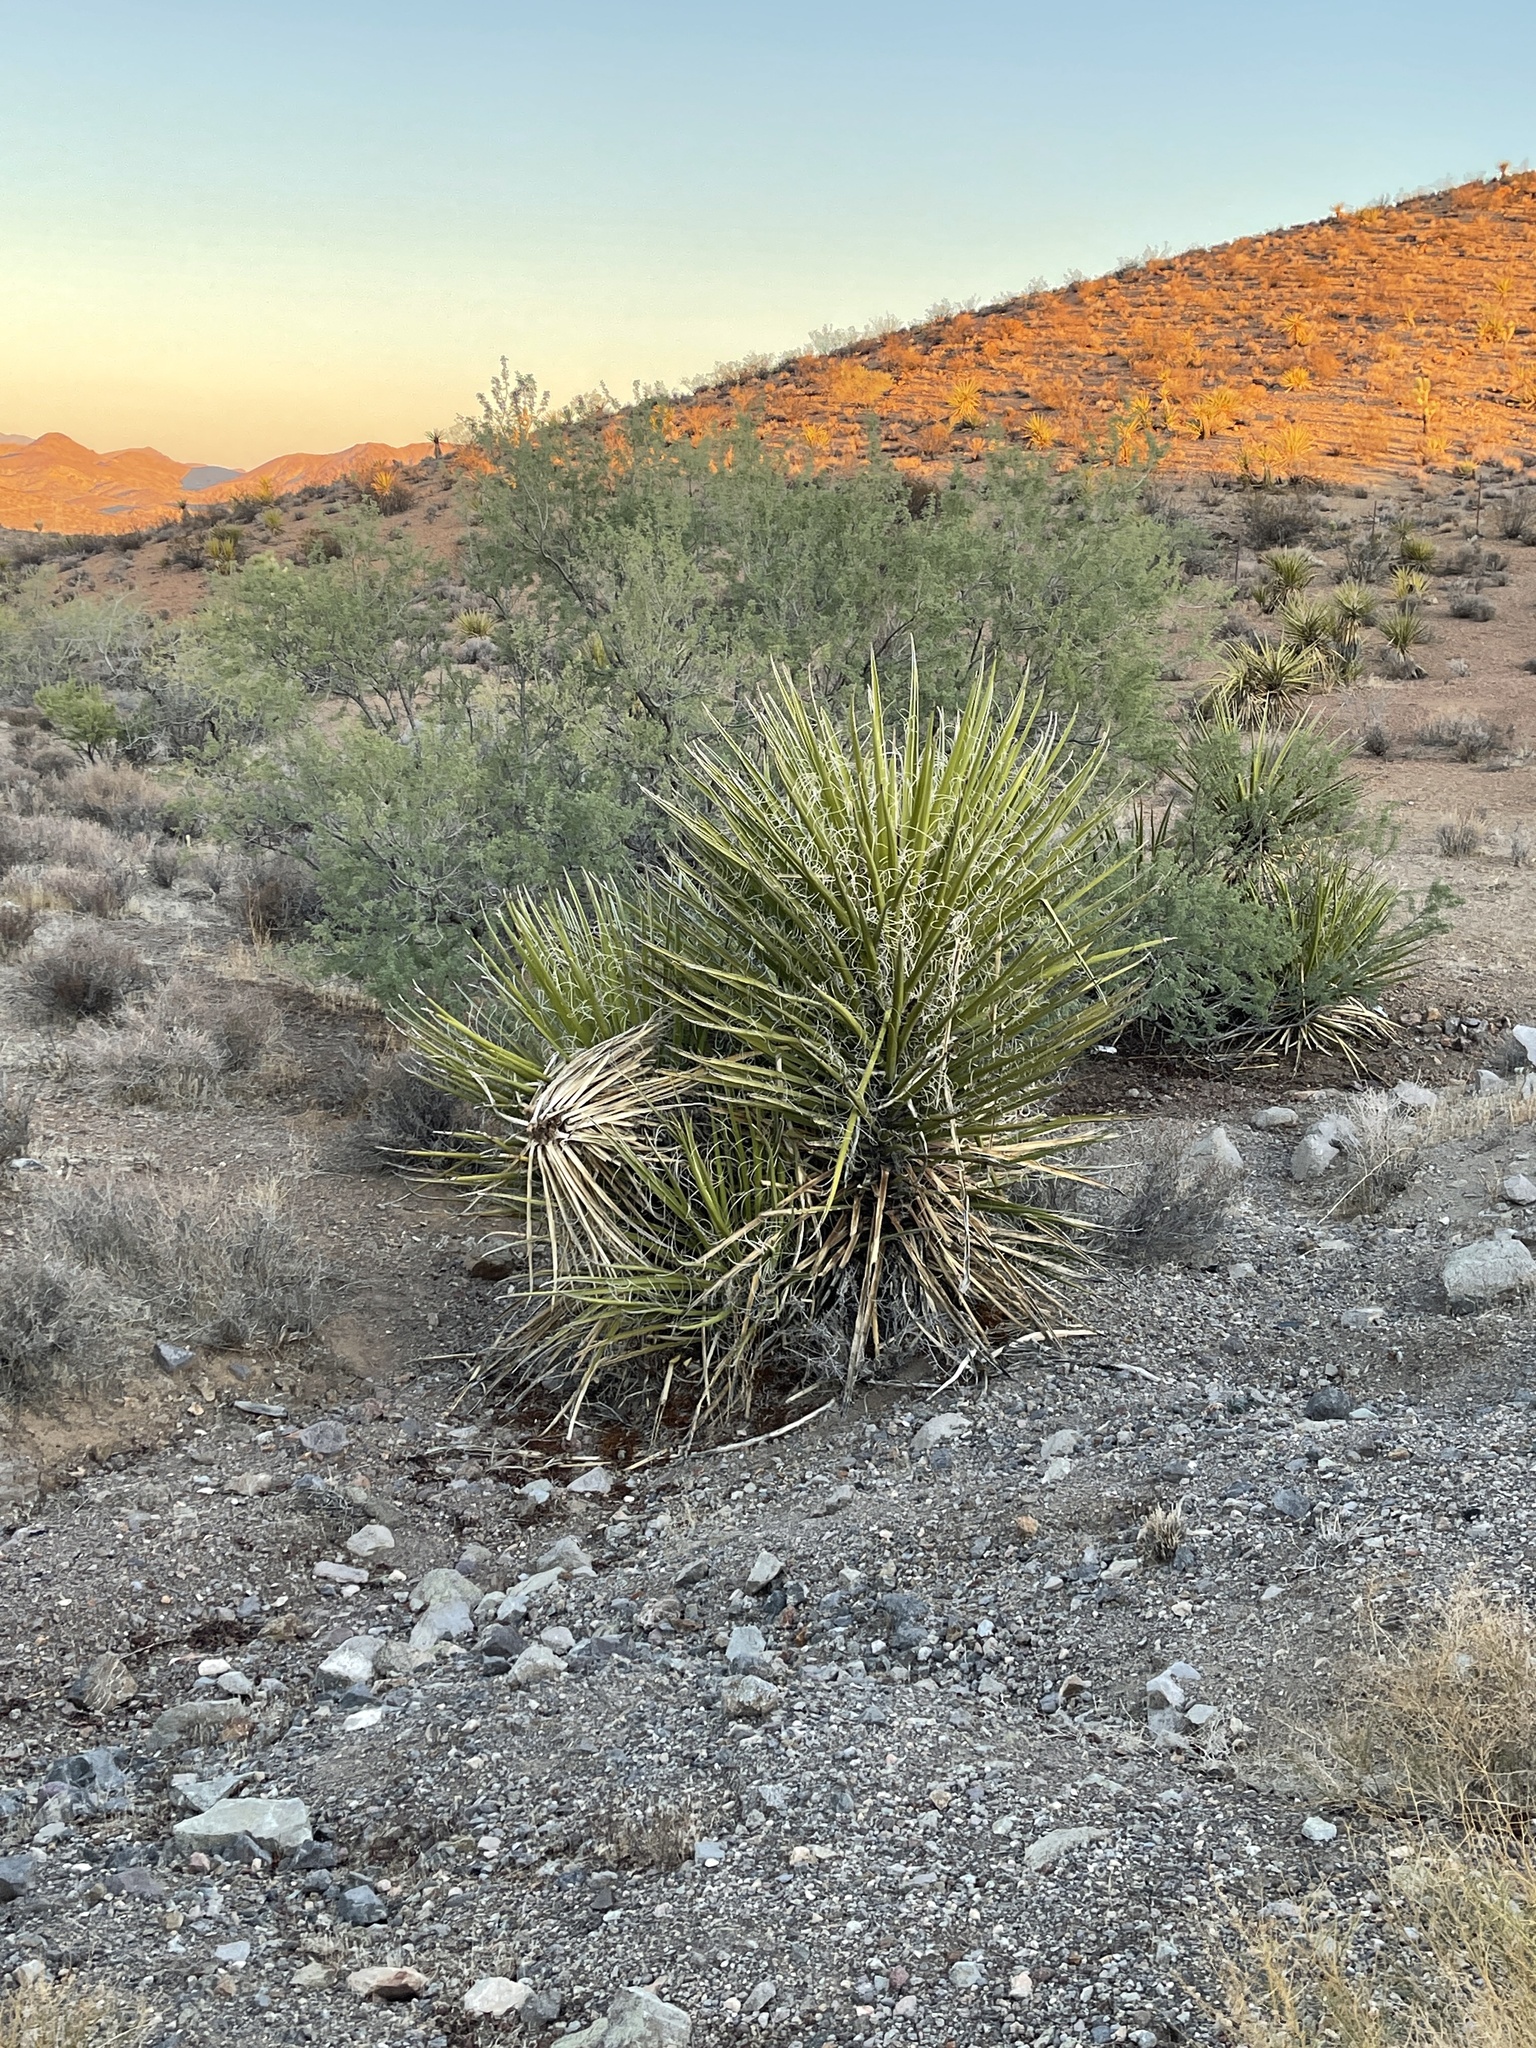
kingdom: Plantae
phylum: Tracheophyta
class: Liliopsida
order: Asparagales
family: Asparagaceae
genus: Yucca
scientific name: Yucca schidigera
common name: Mojave yucca
